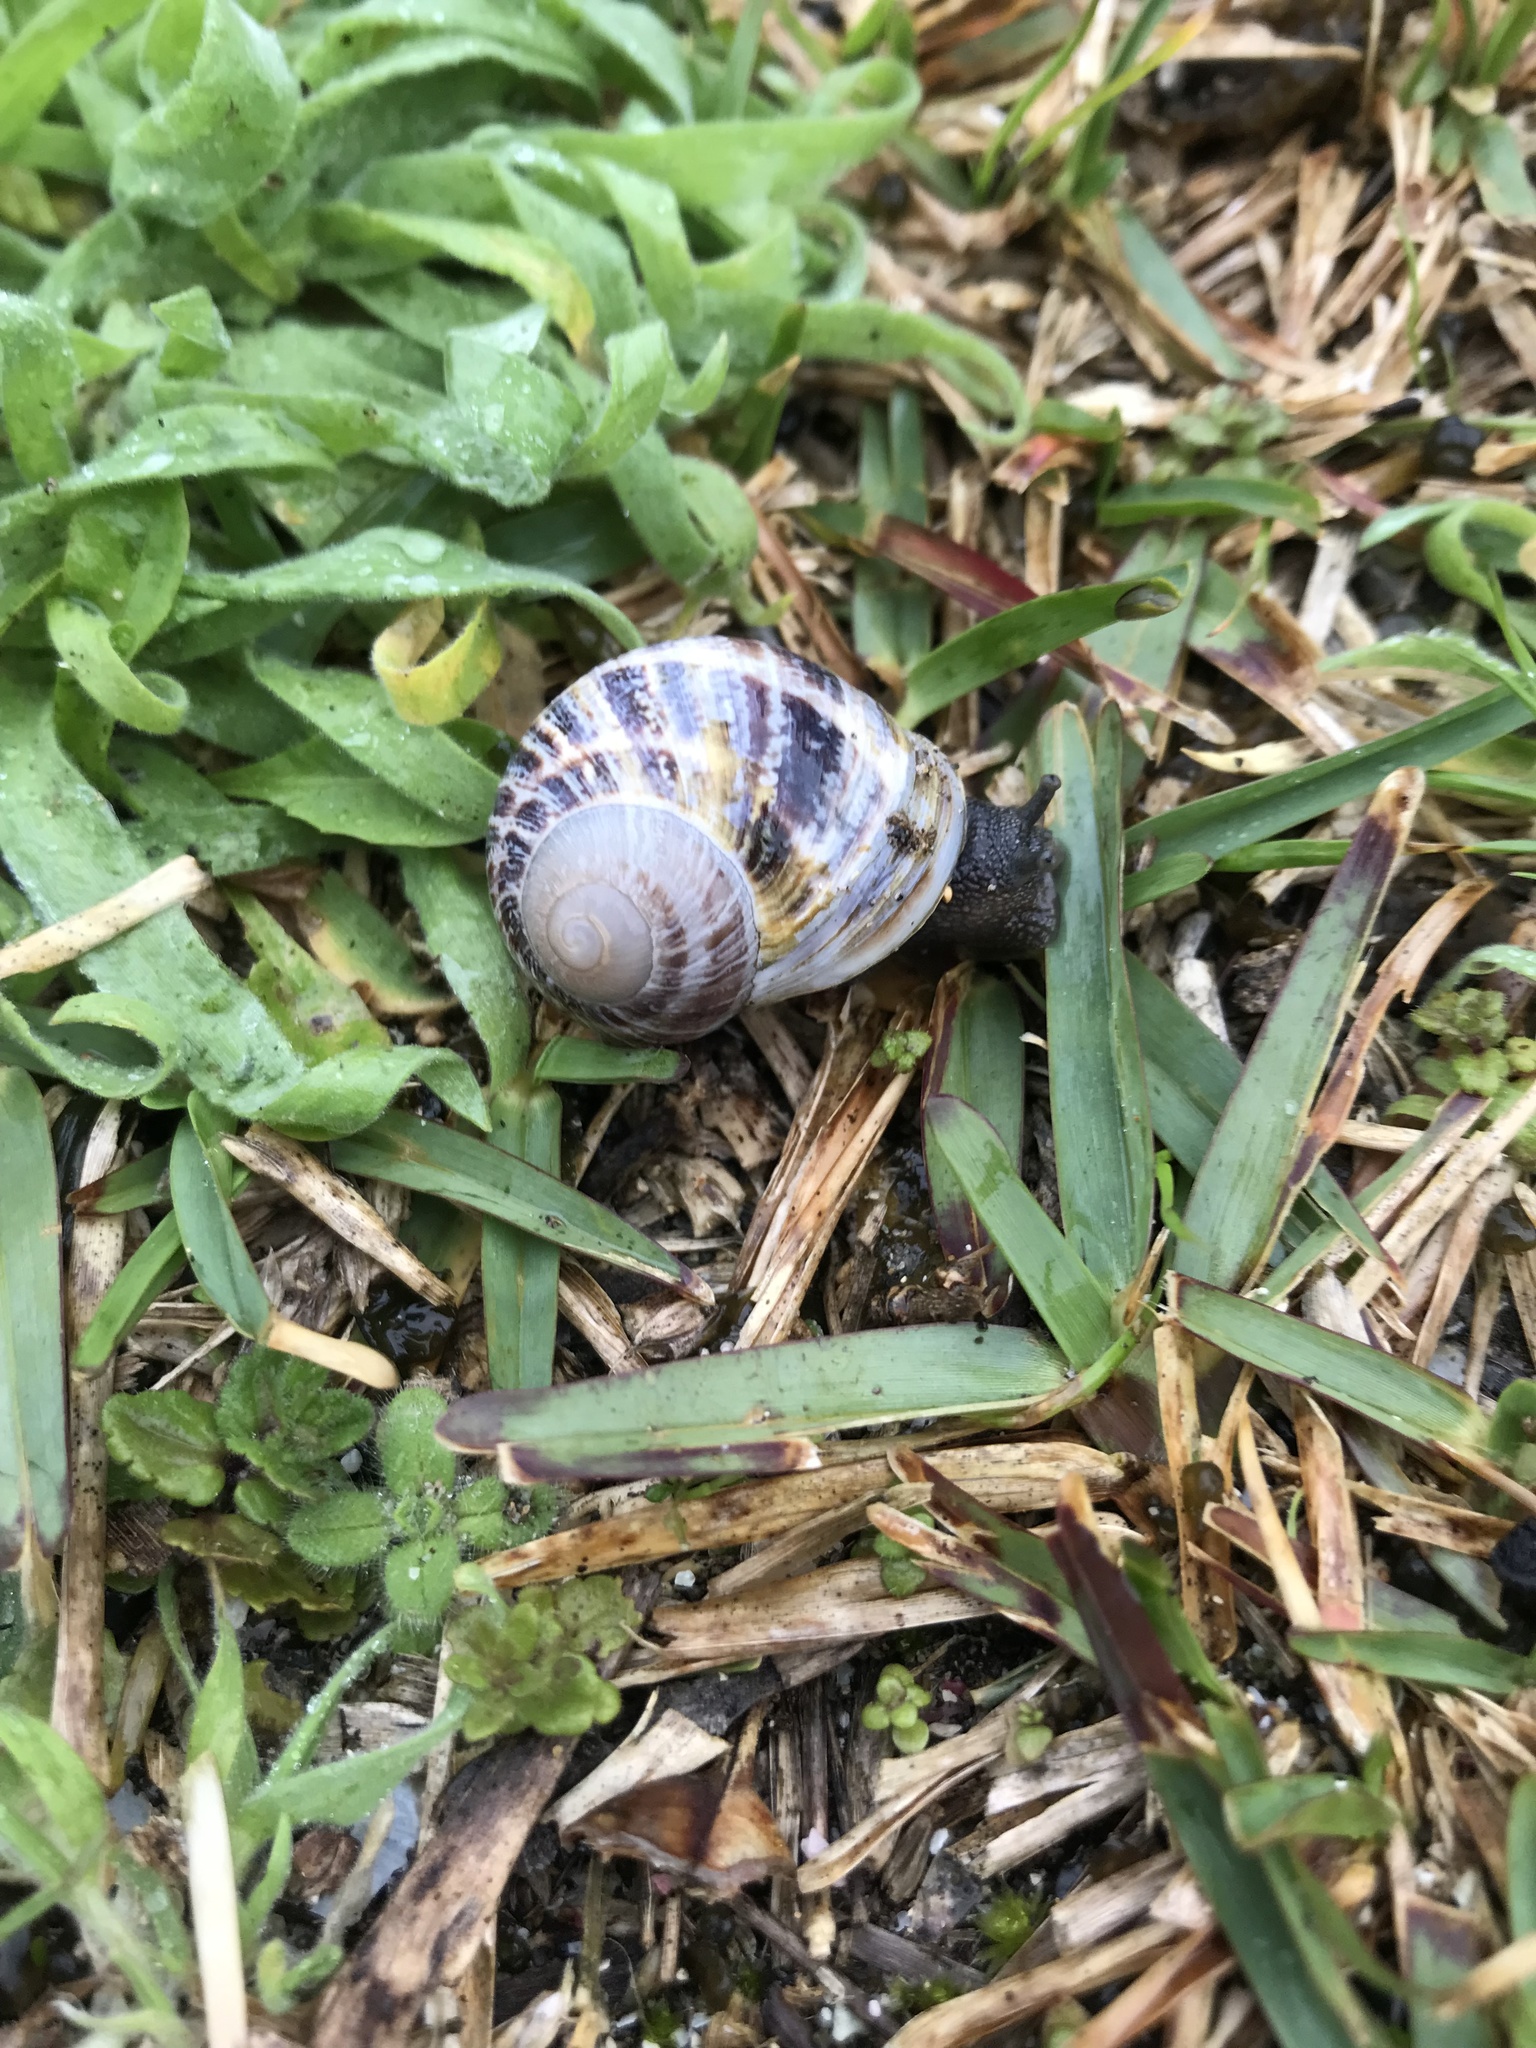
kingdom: Animalia
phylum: Mollusca
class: Gastropoda
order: Stylommatophora
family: Helicidae
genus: Cornu
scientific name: Cornu aspersum
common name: Brown garden snail
